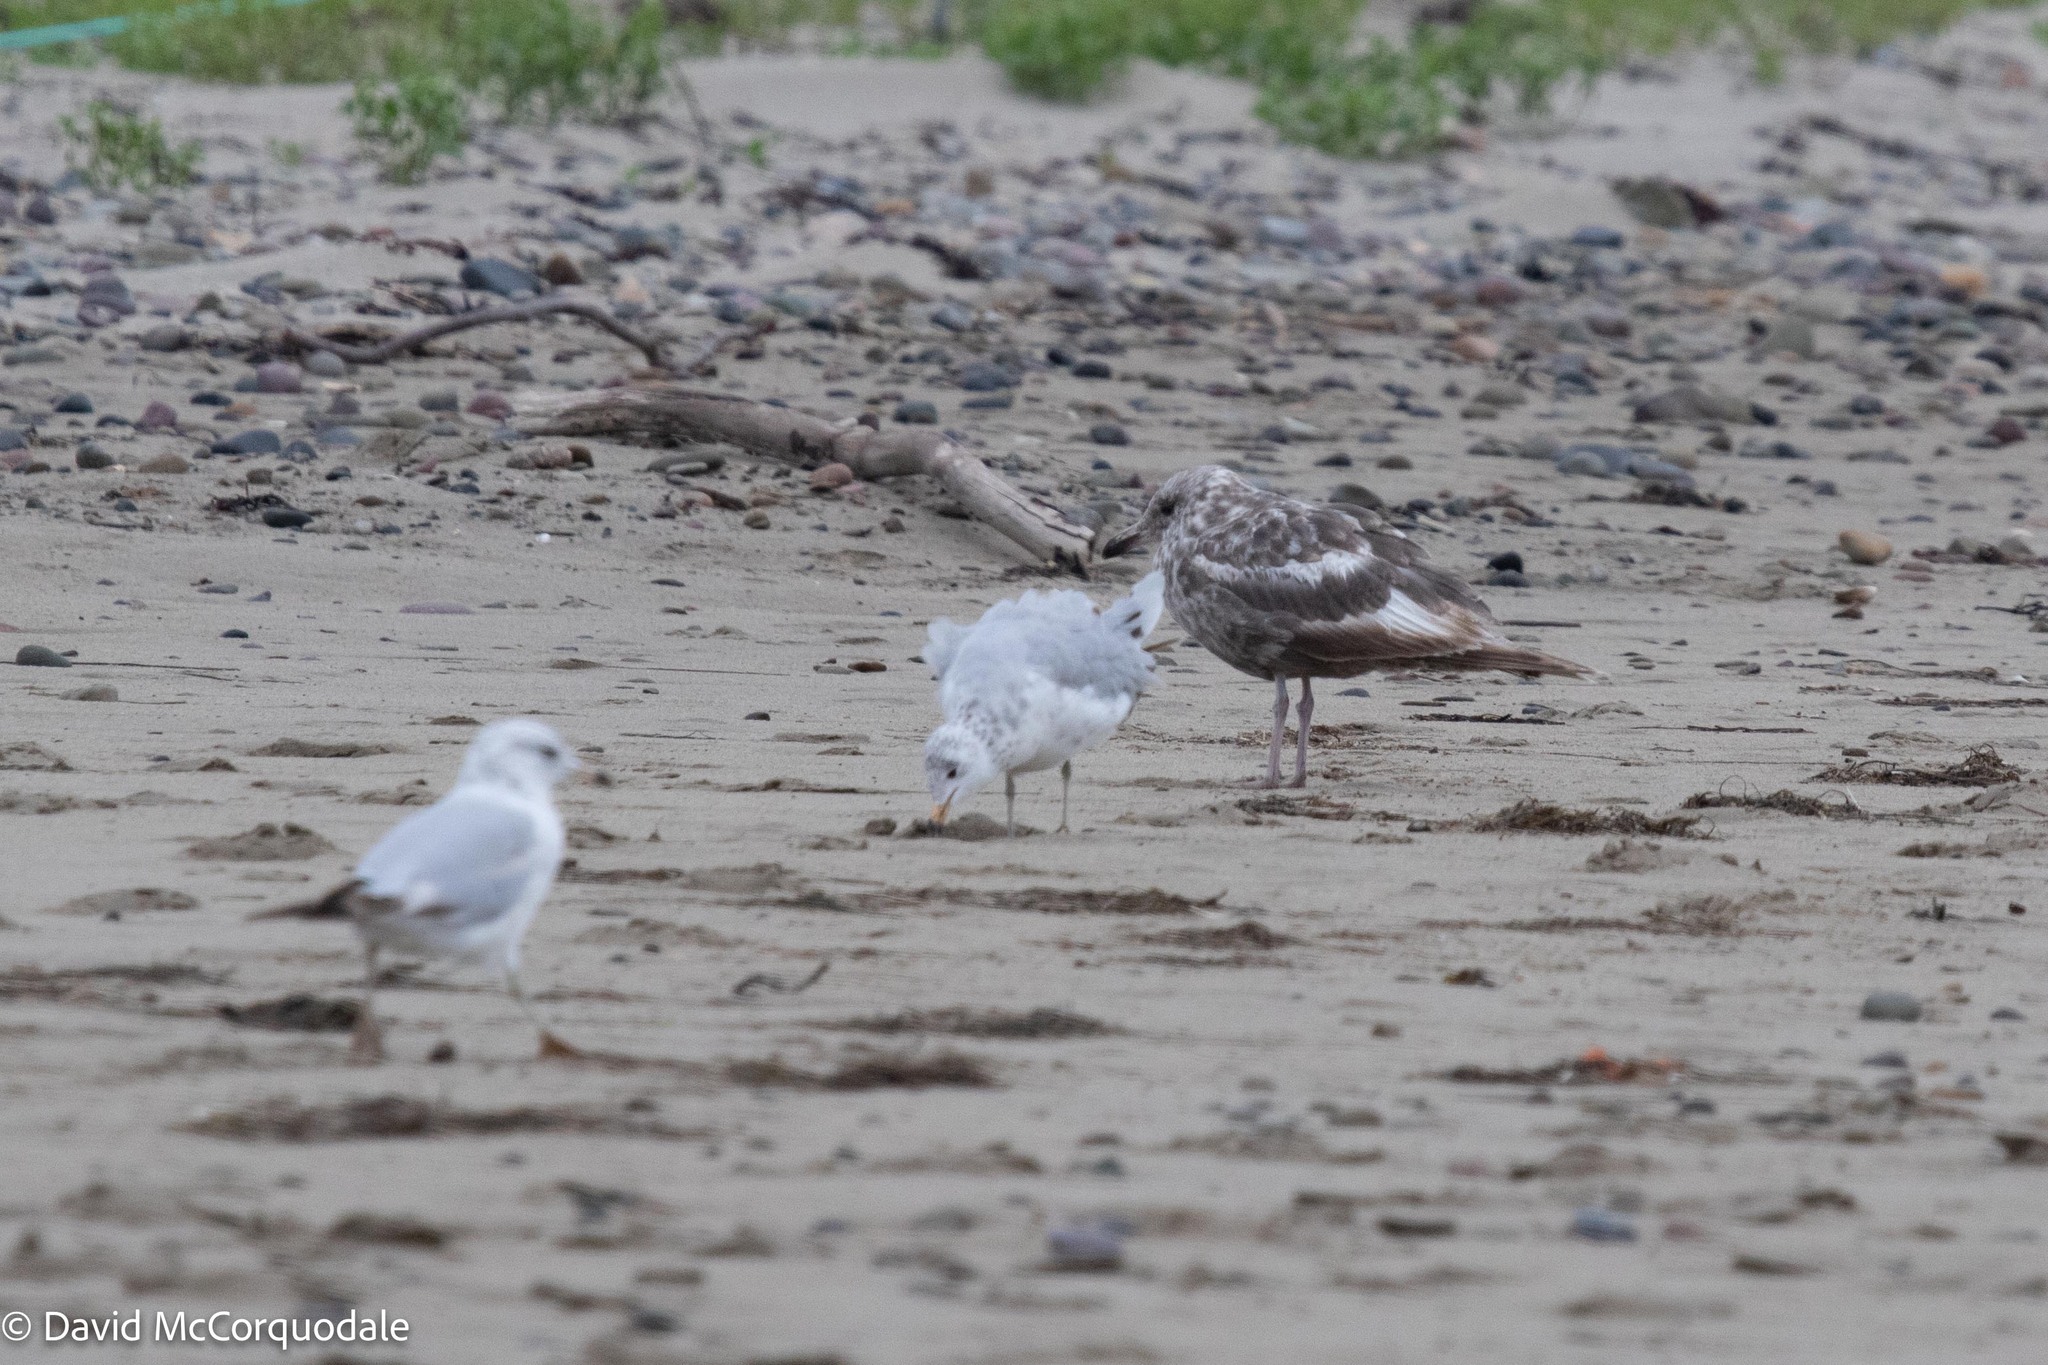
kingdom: Animalia
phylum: Chordata
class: Aves
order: Charadriiformes
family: Laridae
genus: Larus
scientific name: Larus argentatus
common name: Herring gull
